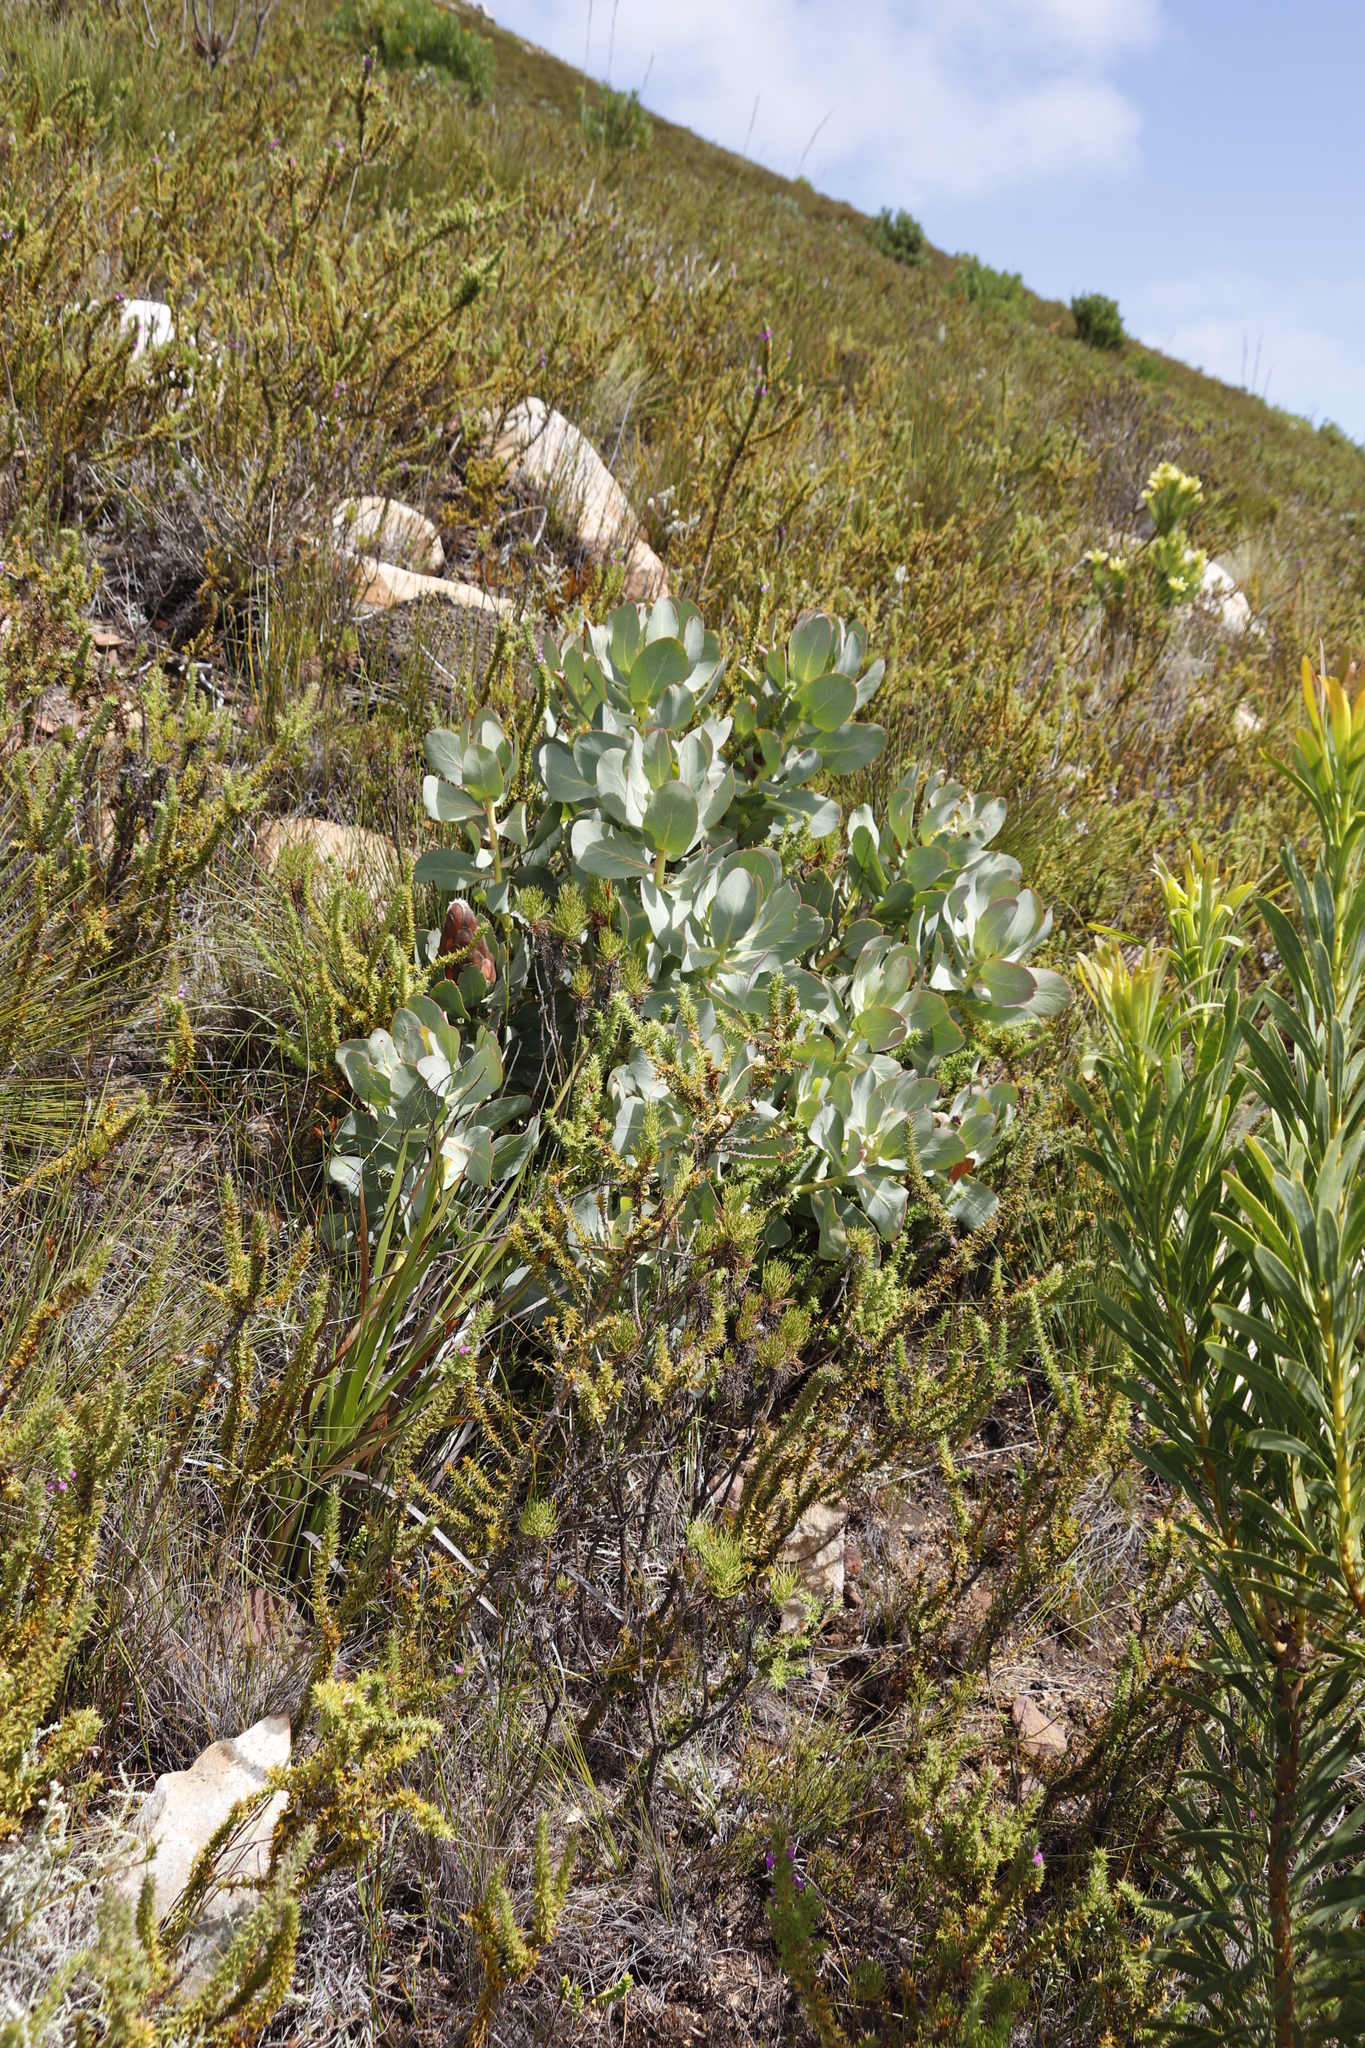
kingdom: Plantae
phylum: Tracheophyta
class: Magnoliopsida
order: Proteales
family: Proteaceae
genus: Protea
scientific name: Protea grandiceps
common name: Red sugarbush
